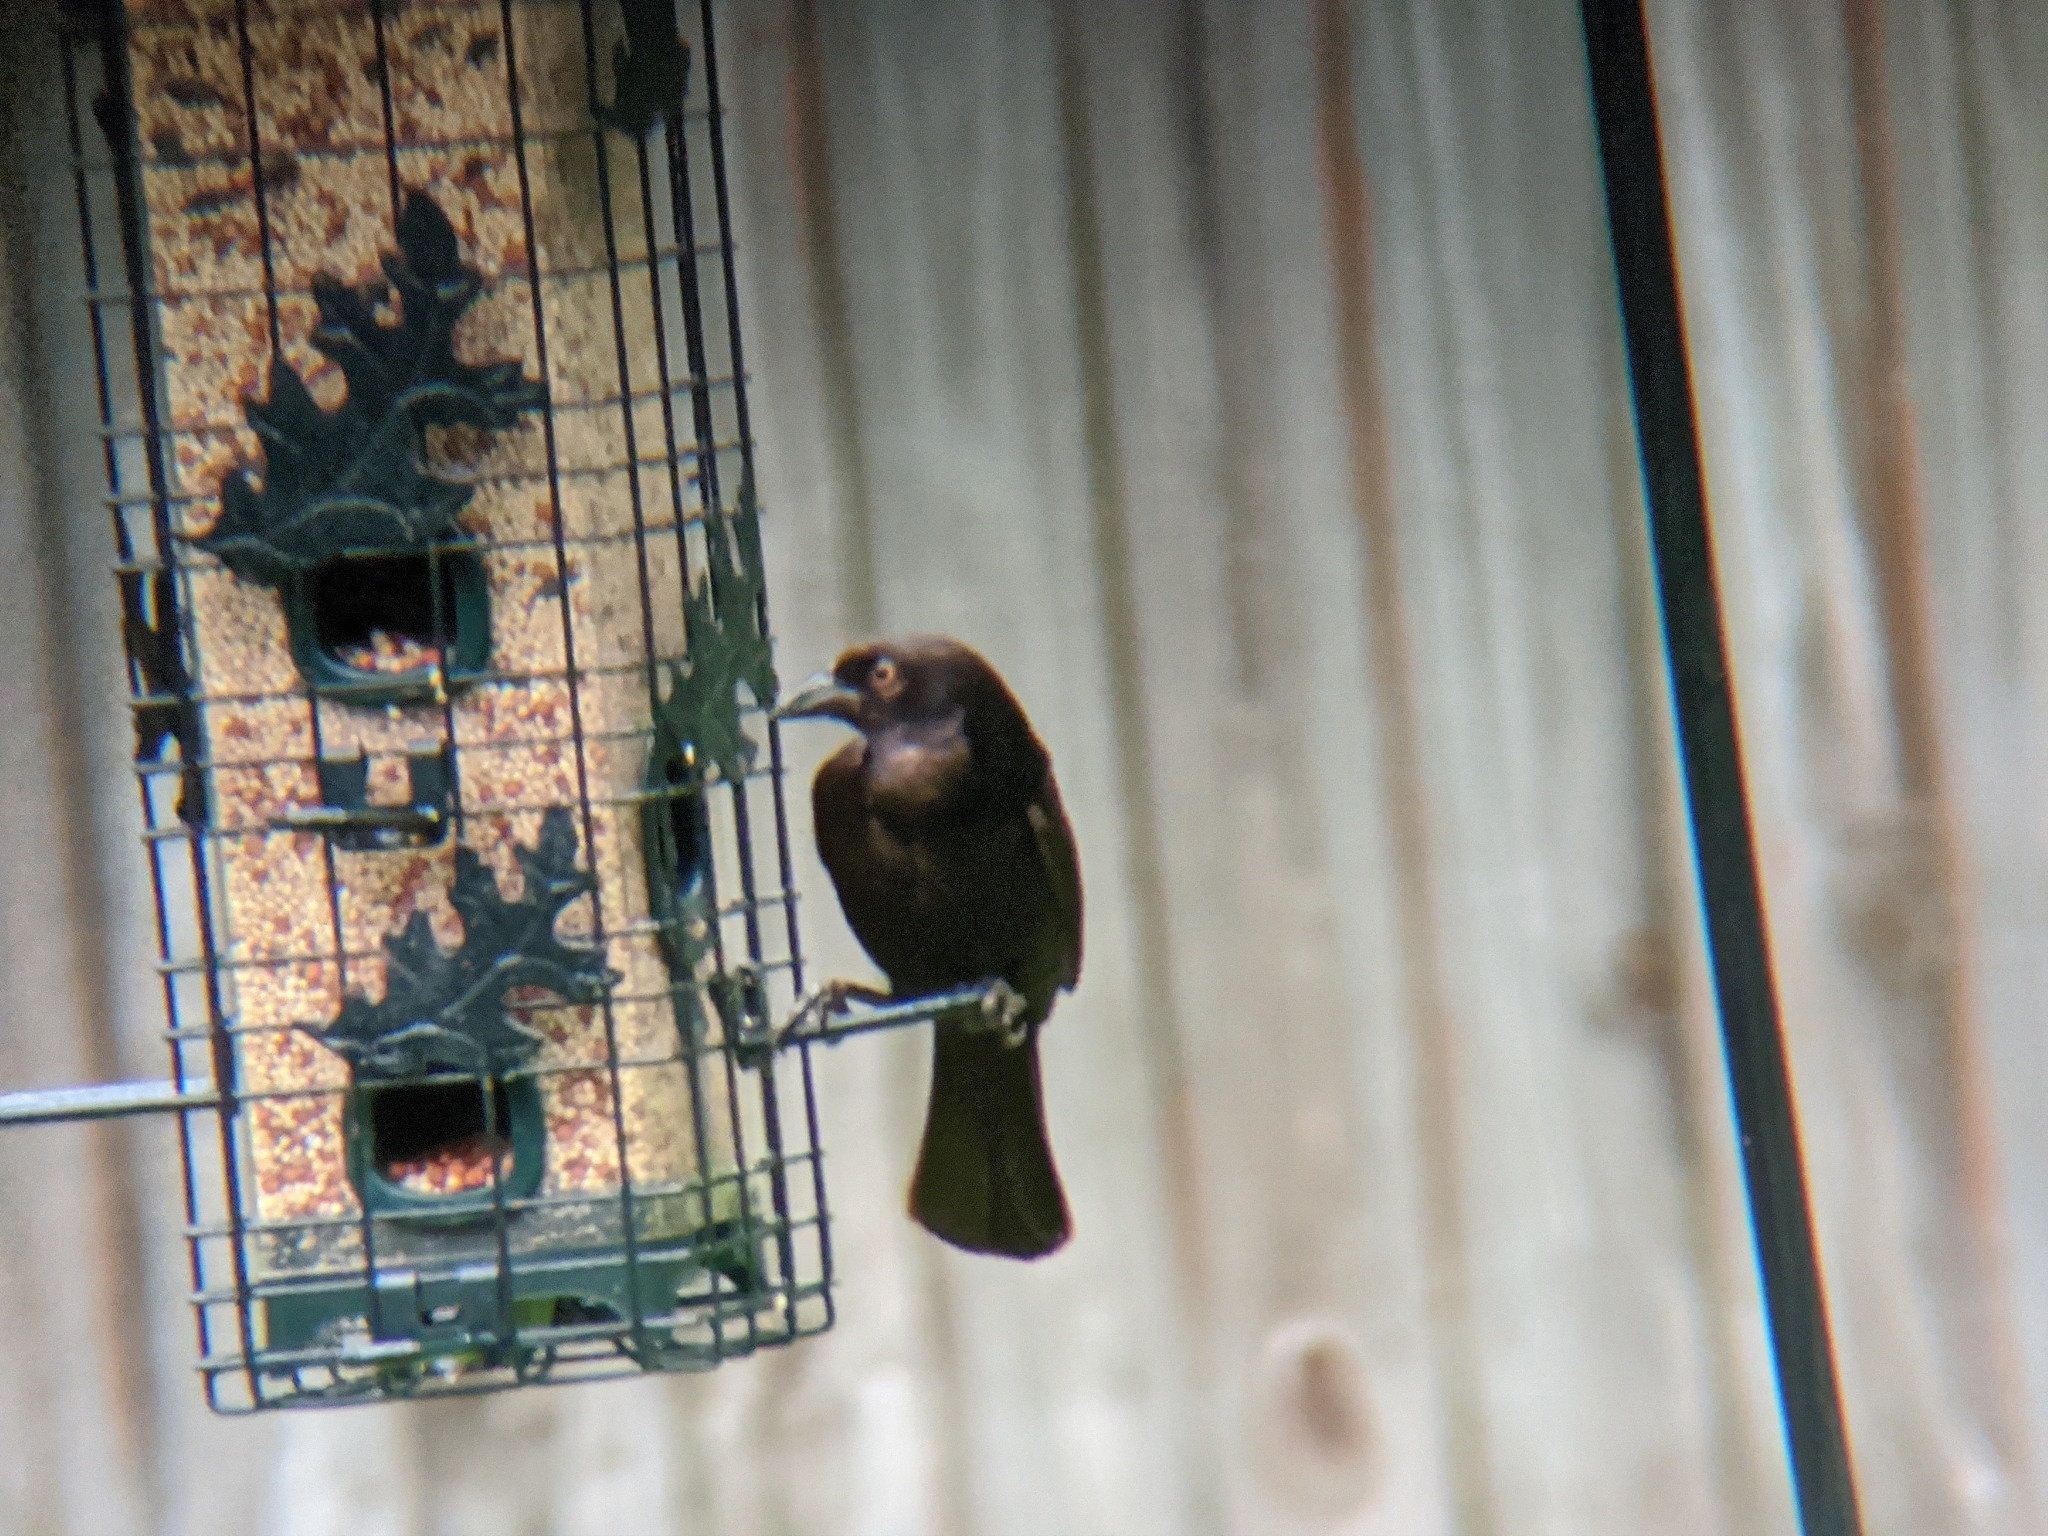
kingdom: Animalia
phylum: Chordata
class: Aves
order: Passeriformes
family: Icteridae
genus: Molothrus
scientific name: Molothrus aeneus
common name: Bronzed cowbird
